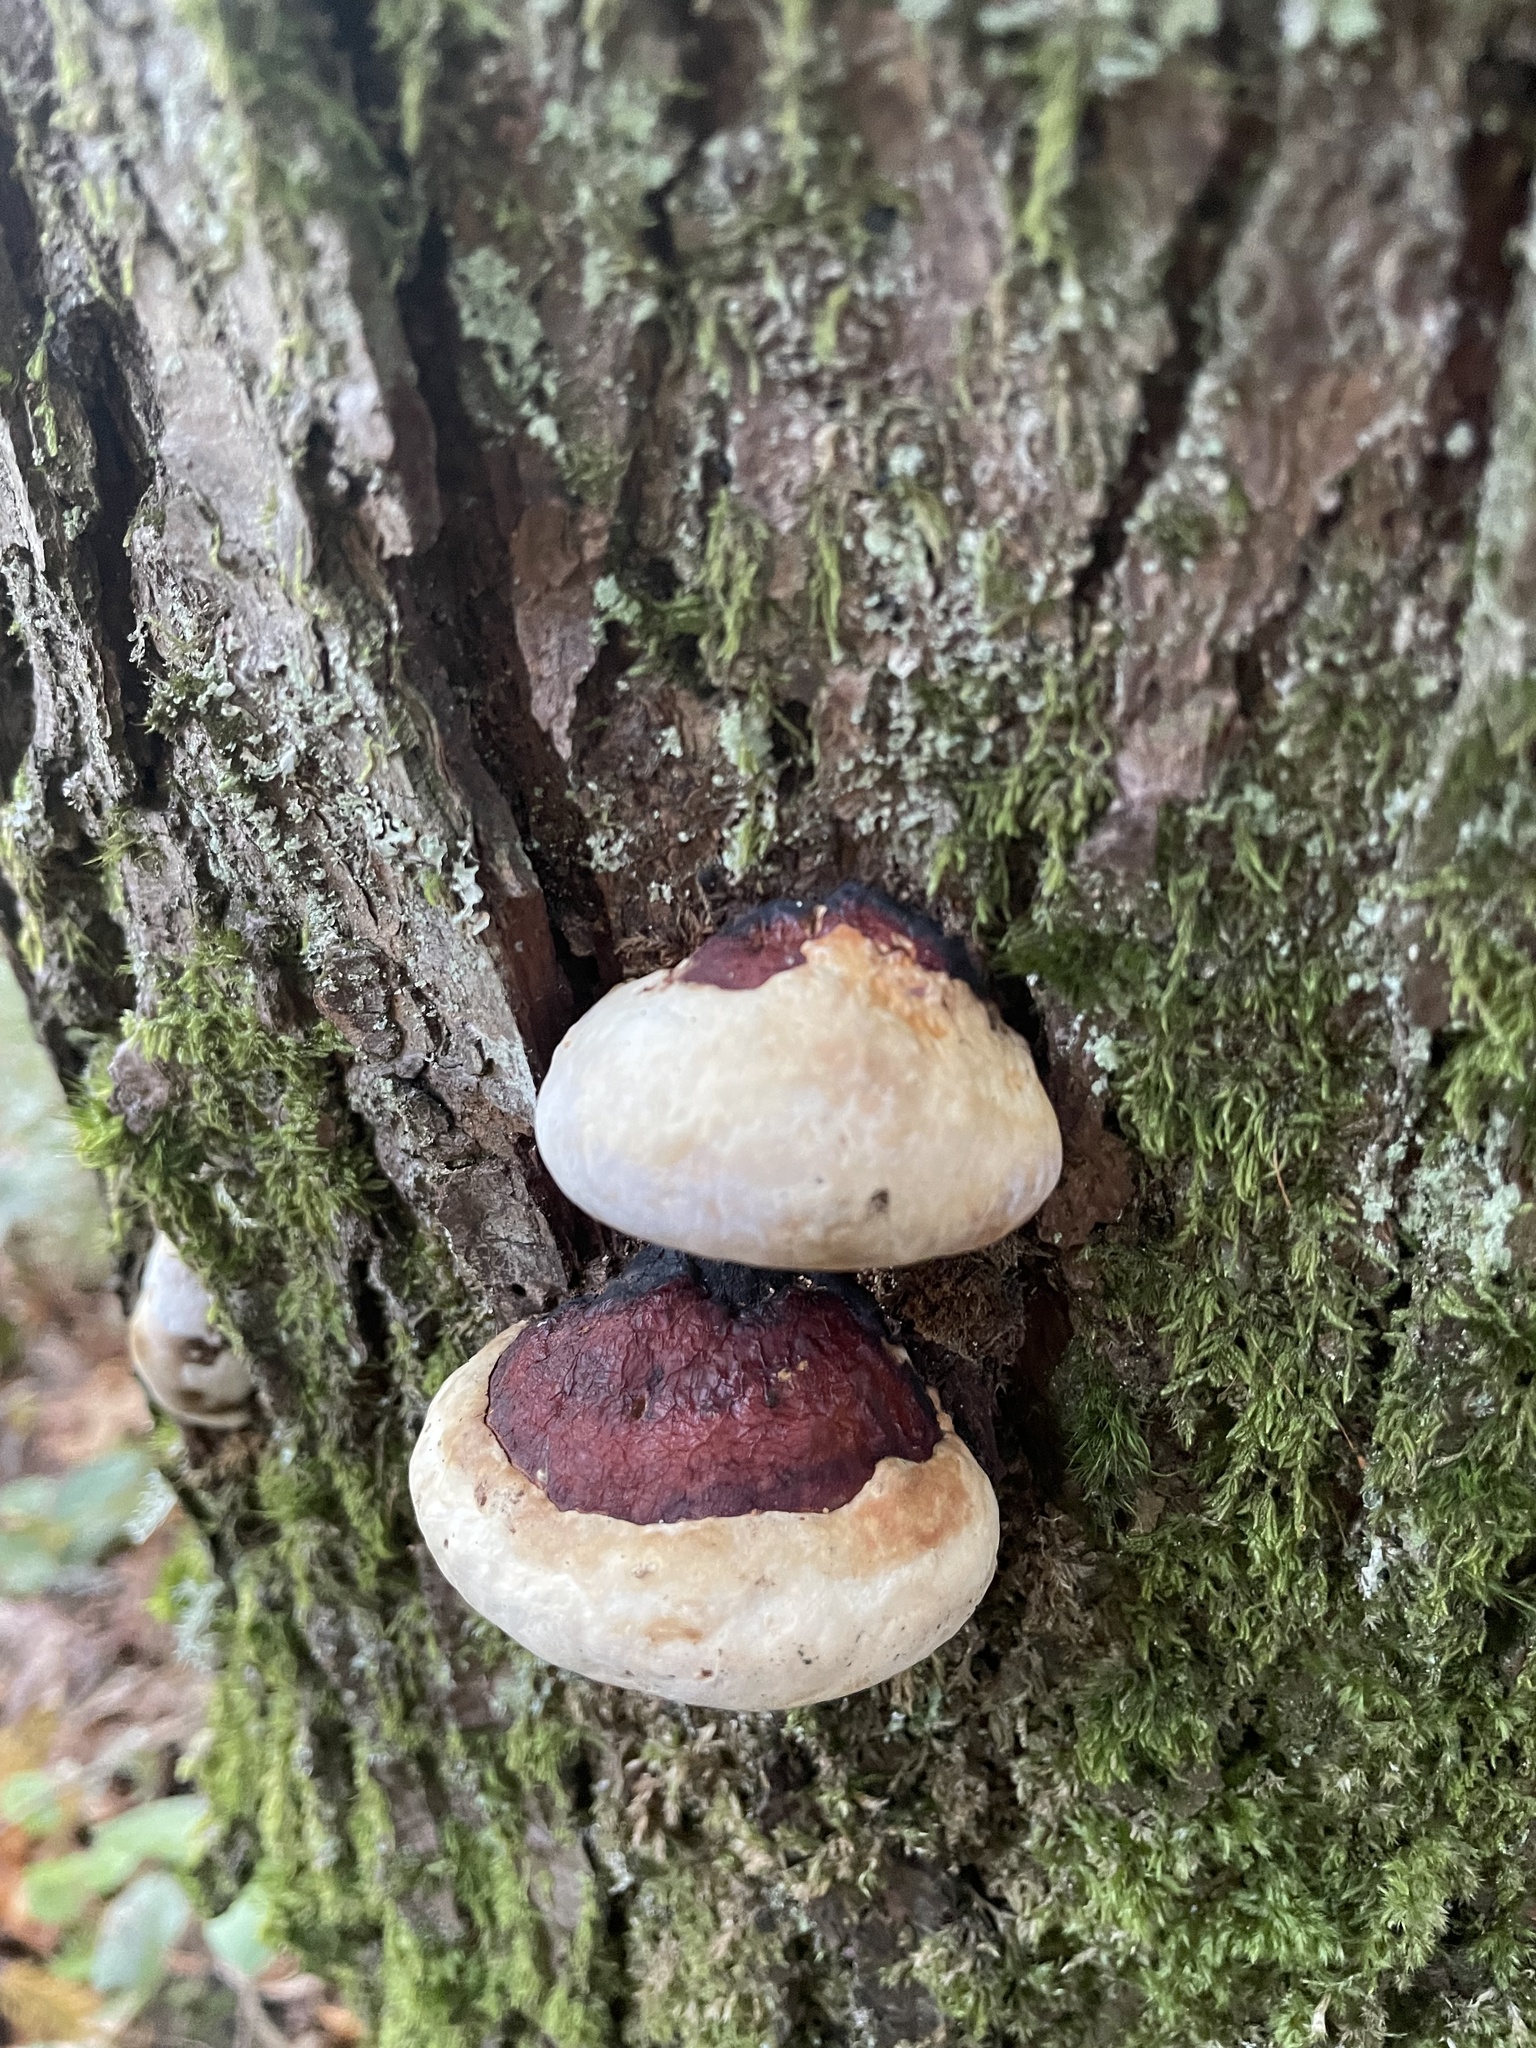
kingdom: Fungi
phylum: Basidiomycota
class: Agaricomycetes
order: Polyporales
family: Fomitopsidaceae
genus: Fomitopsis
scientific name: Fomitopsis mounceae
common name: Northern red belt
